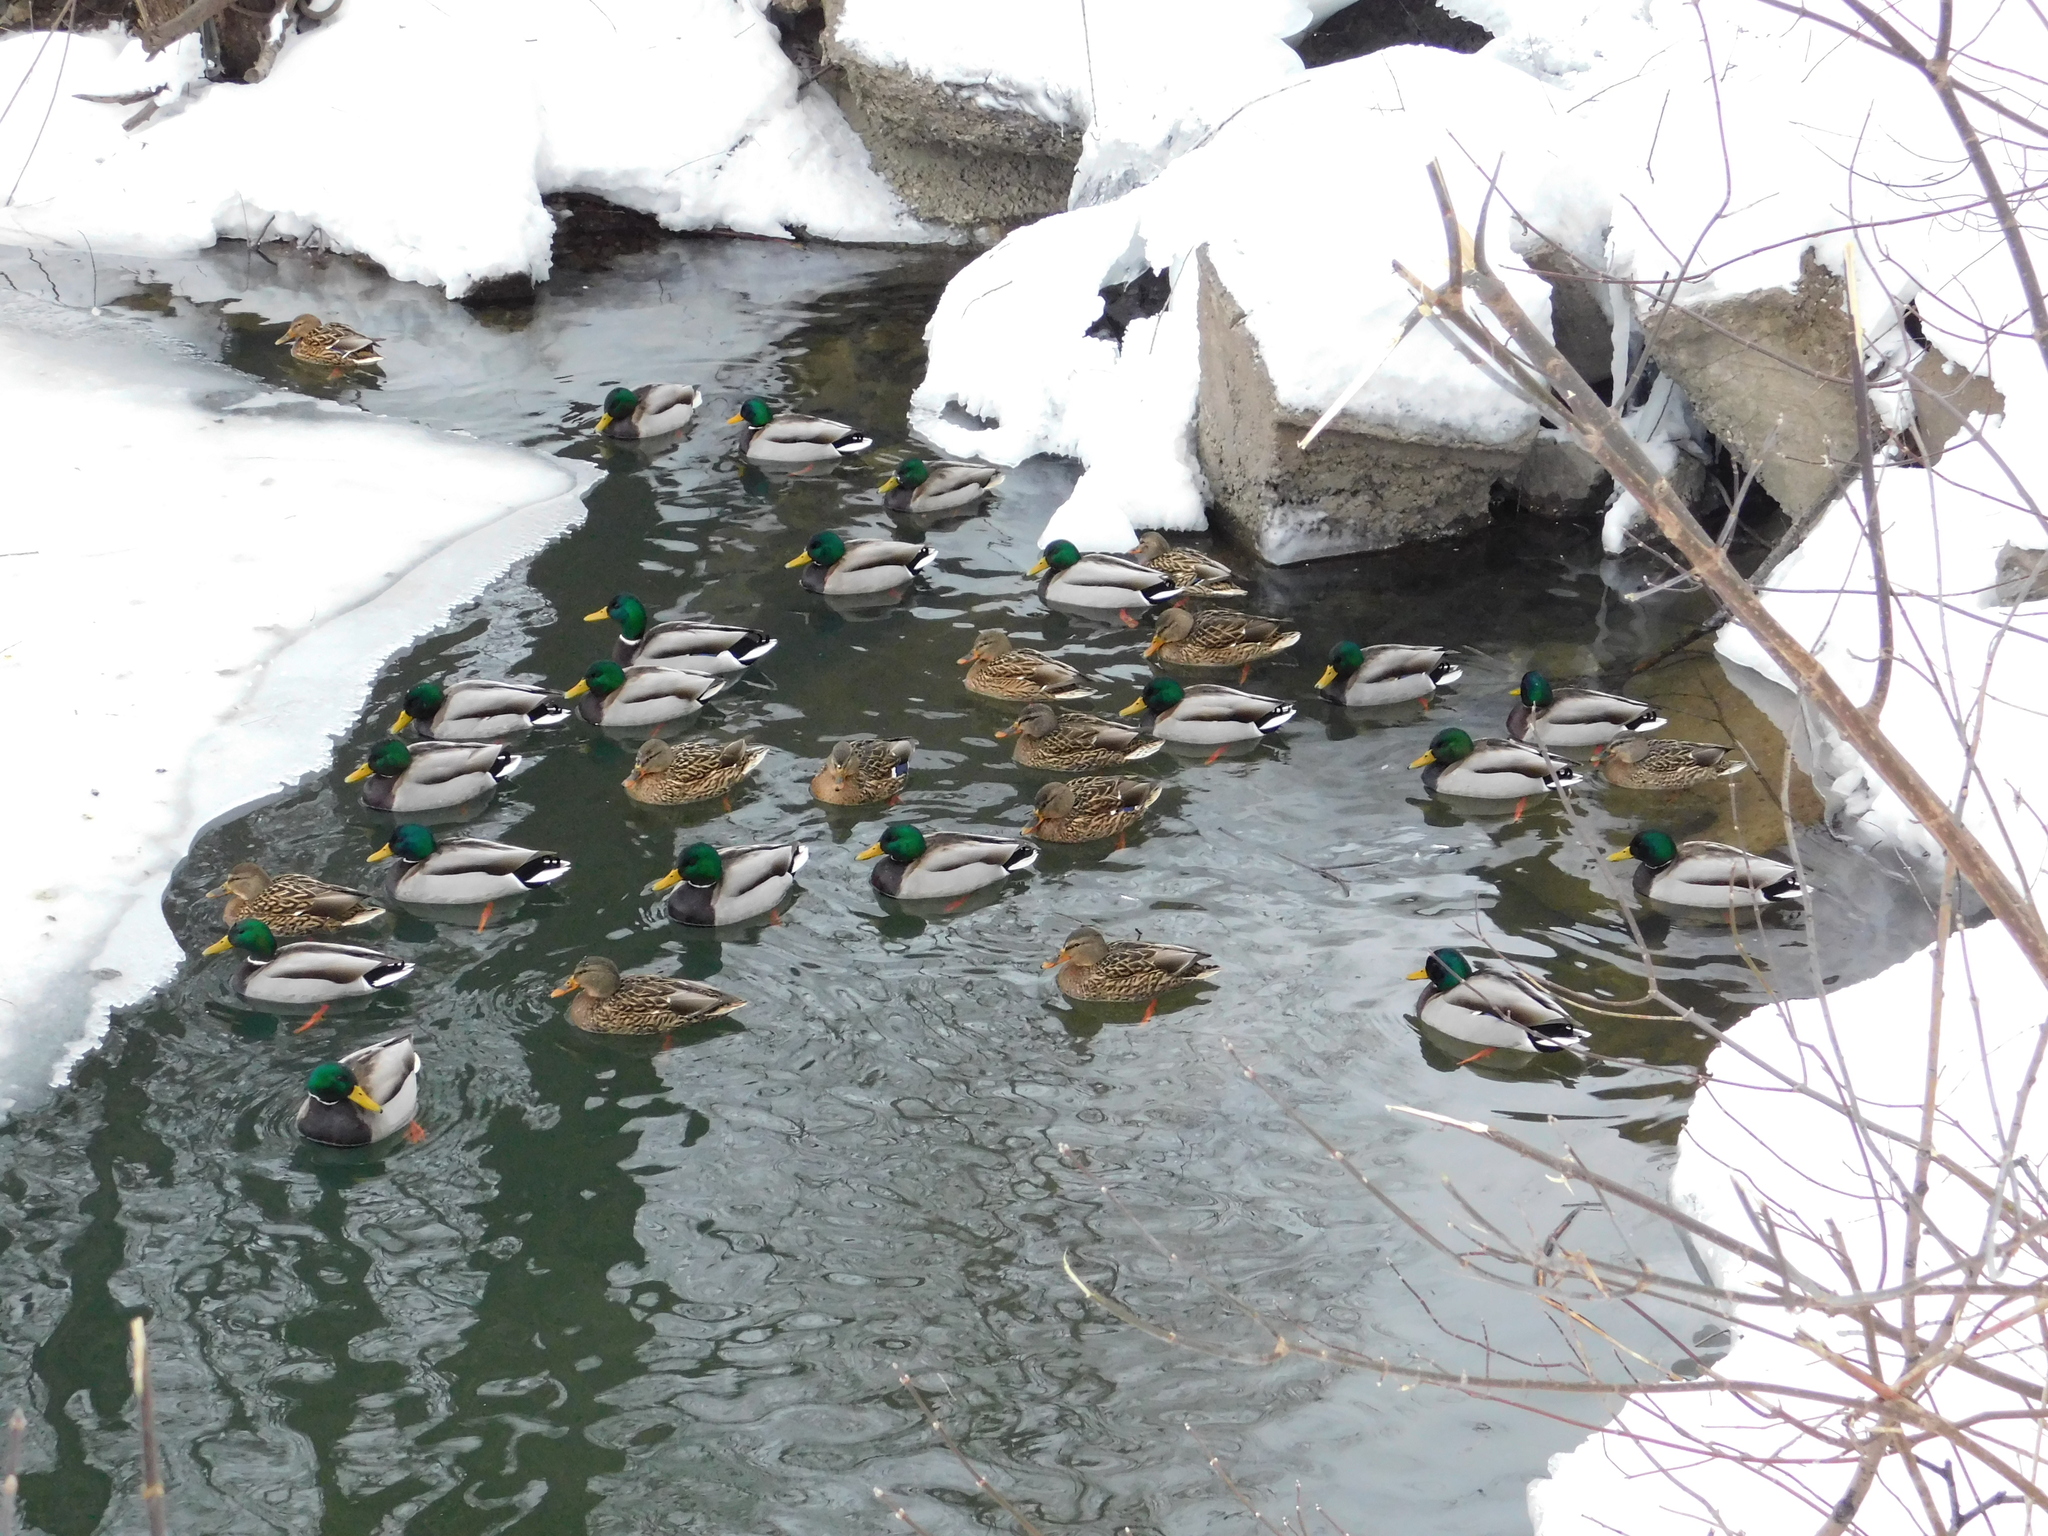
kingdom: Animalia
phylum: Chordata
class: Aves
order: Anseriformes
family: Anatidae
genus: Anas
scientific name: Anas platyrhynchos
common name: Mallard
